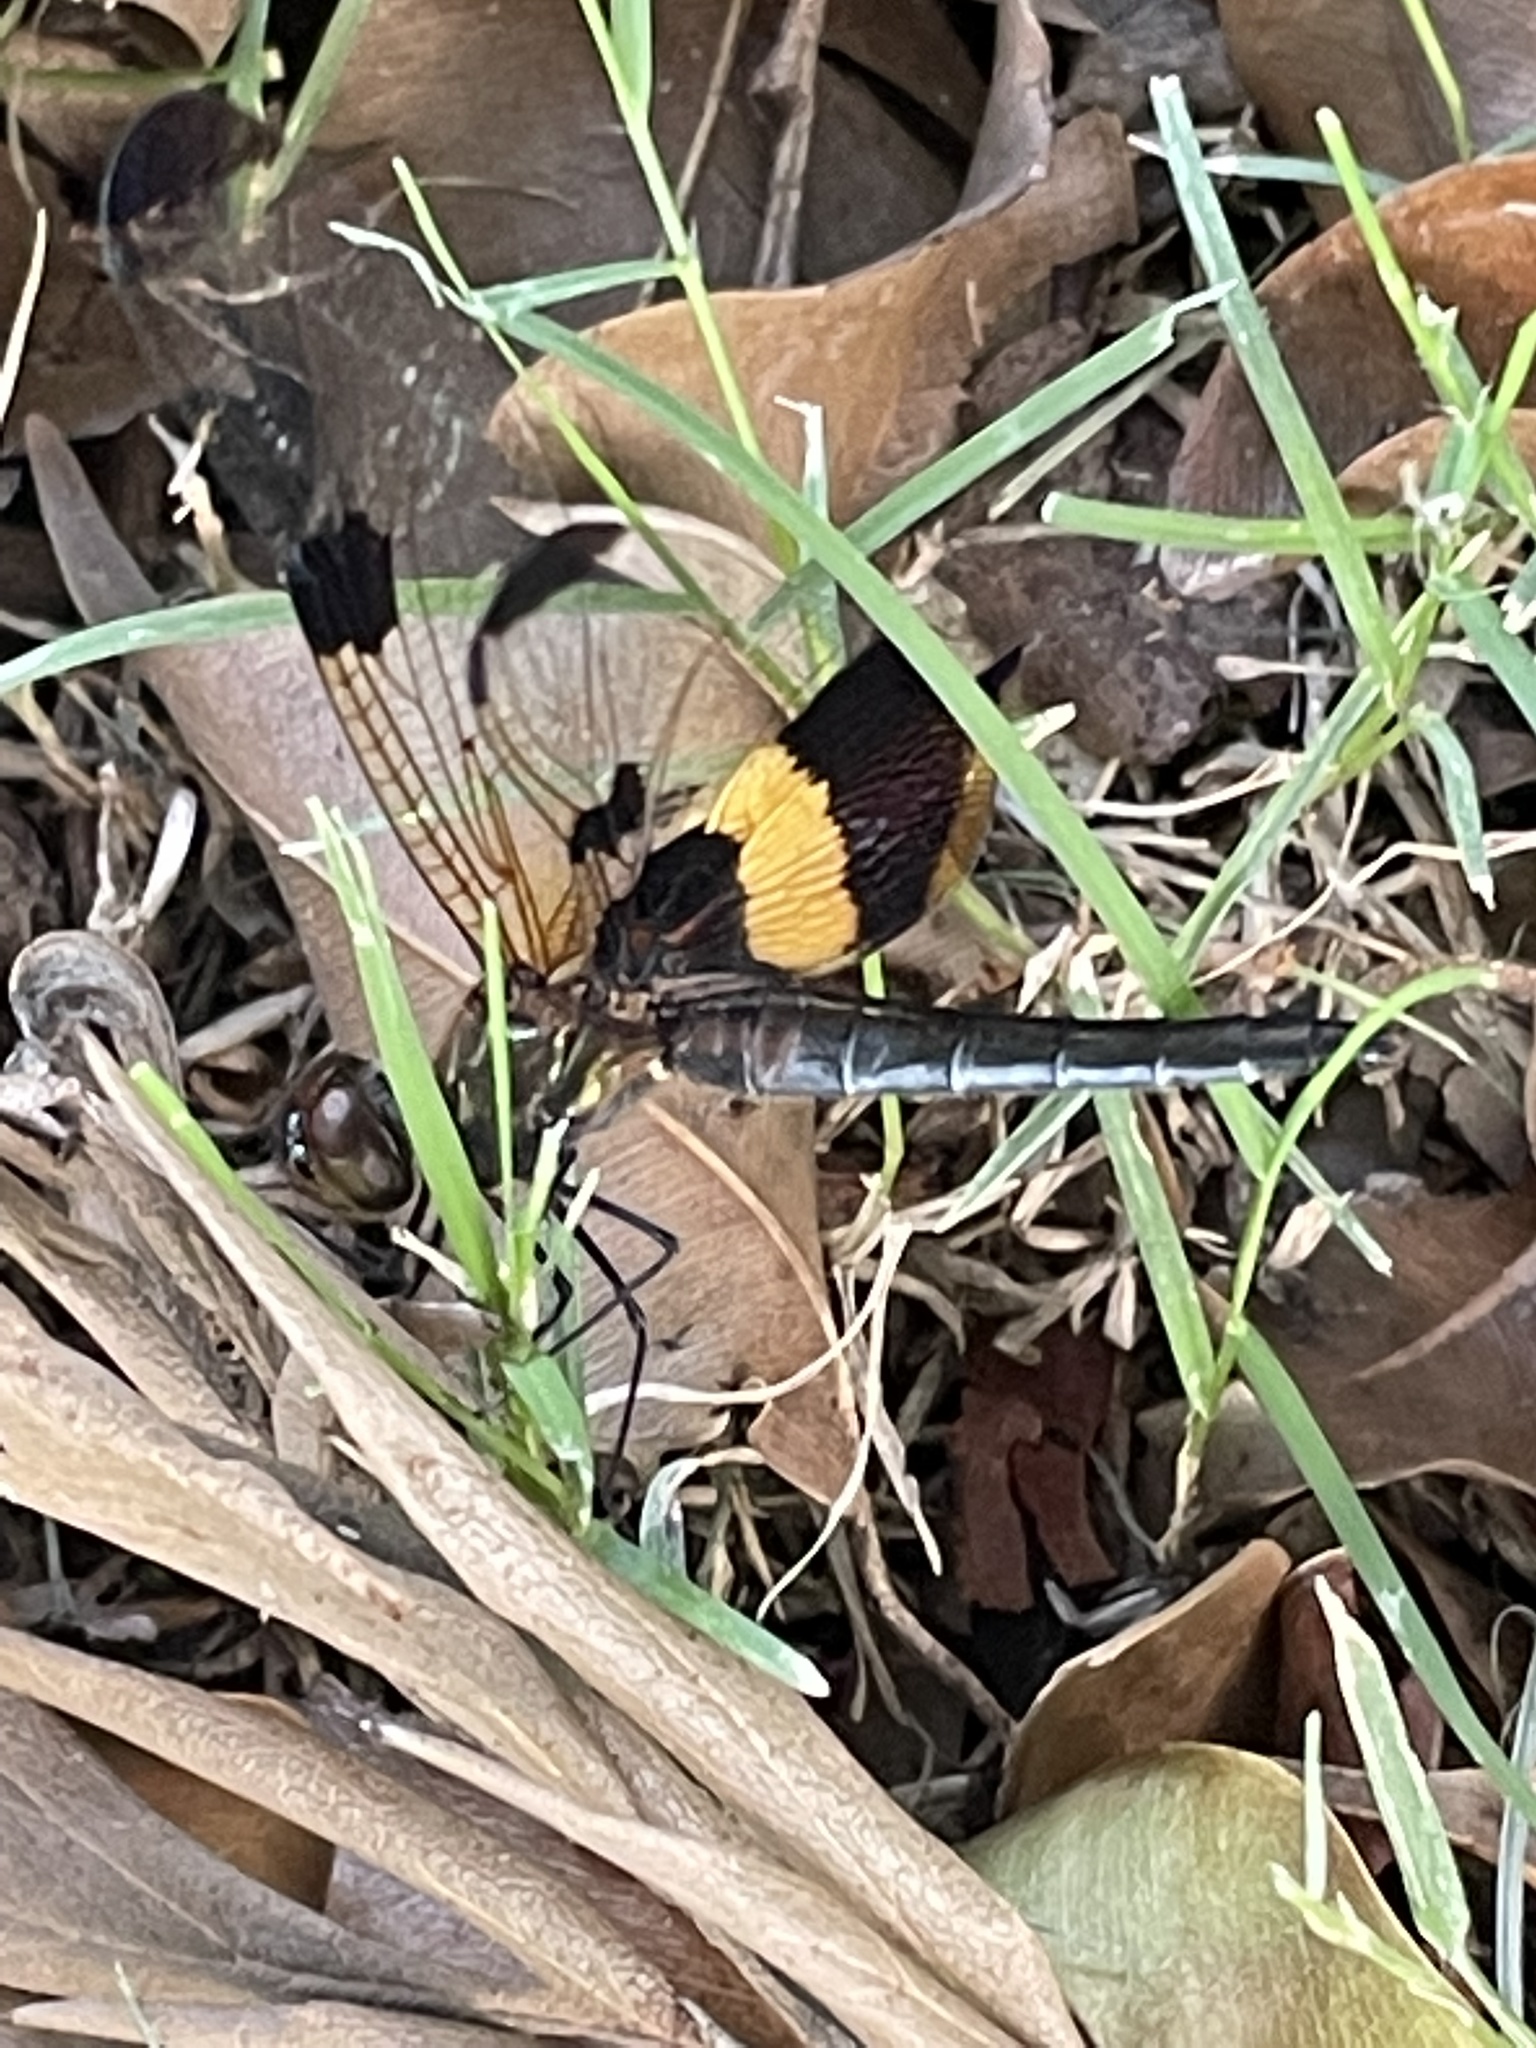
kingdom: Animalia
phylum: Arthropoda
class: Insecta
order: Odonata
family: Libellulidae
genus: Rhyothemis
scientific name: Rhyothemis phyllis
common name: Yellow-barred flutterer
